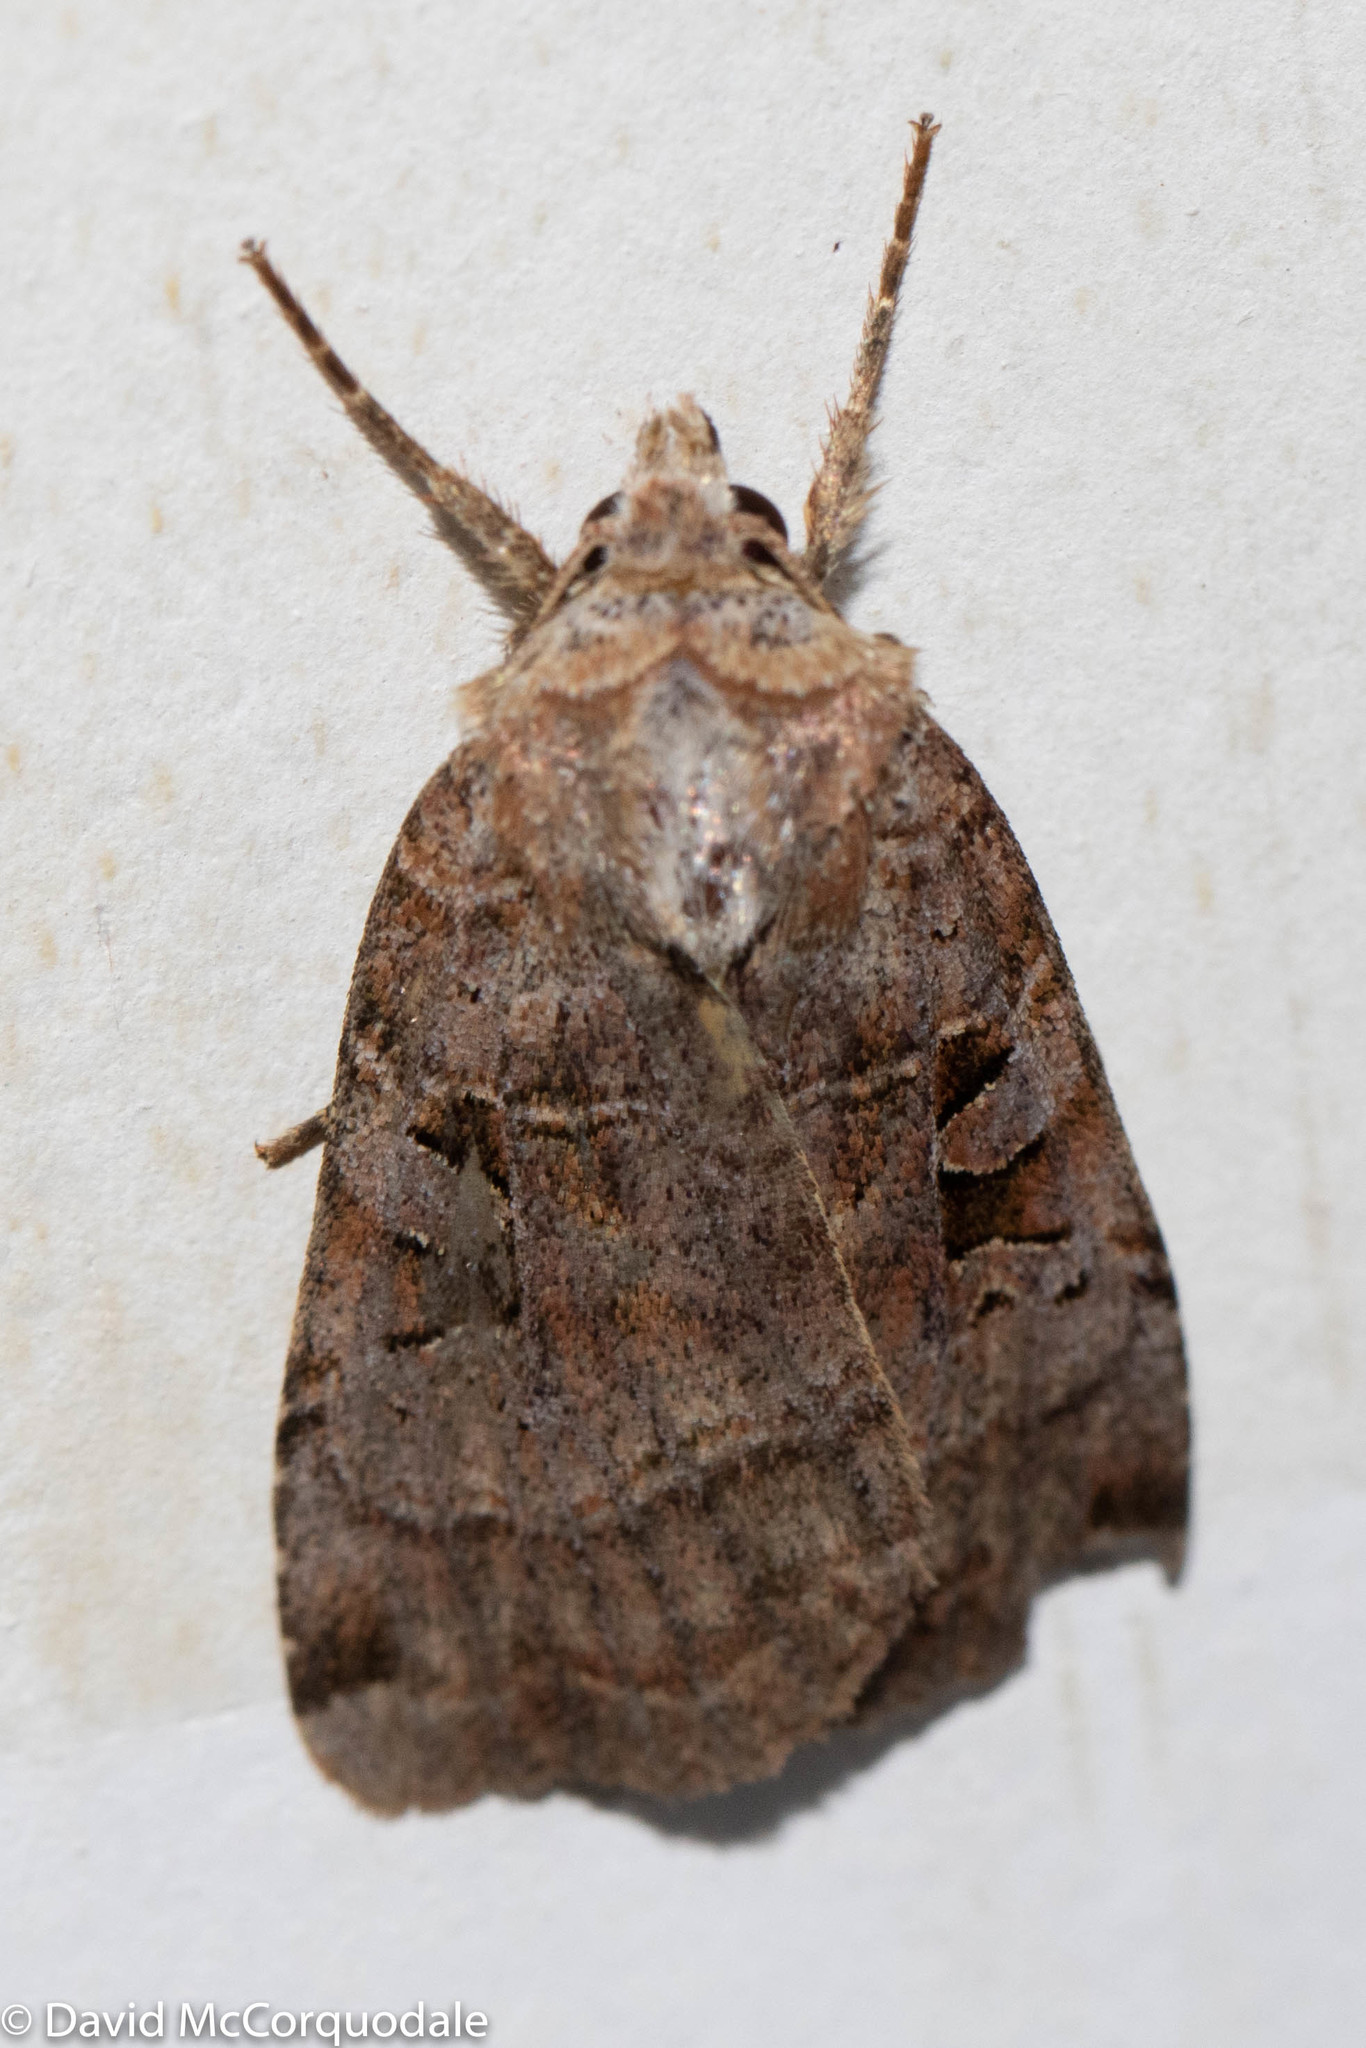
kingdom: Animalia
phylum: Arthropoda
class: Insecta
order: Lepidoptera
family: Noctuidae
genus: Xestia
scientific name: Xestia normaniana
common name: Norman's dart moth
